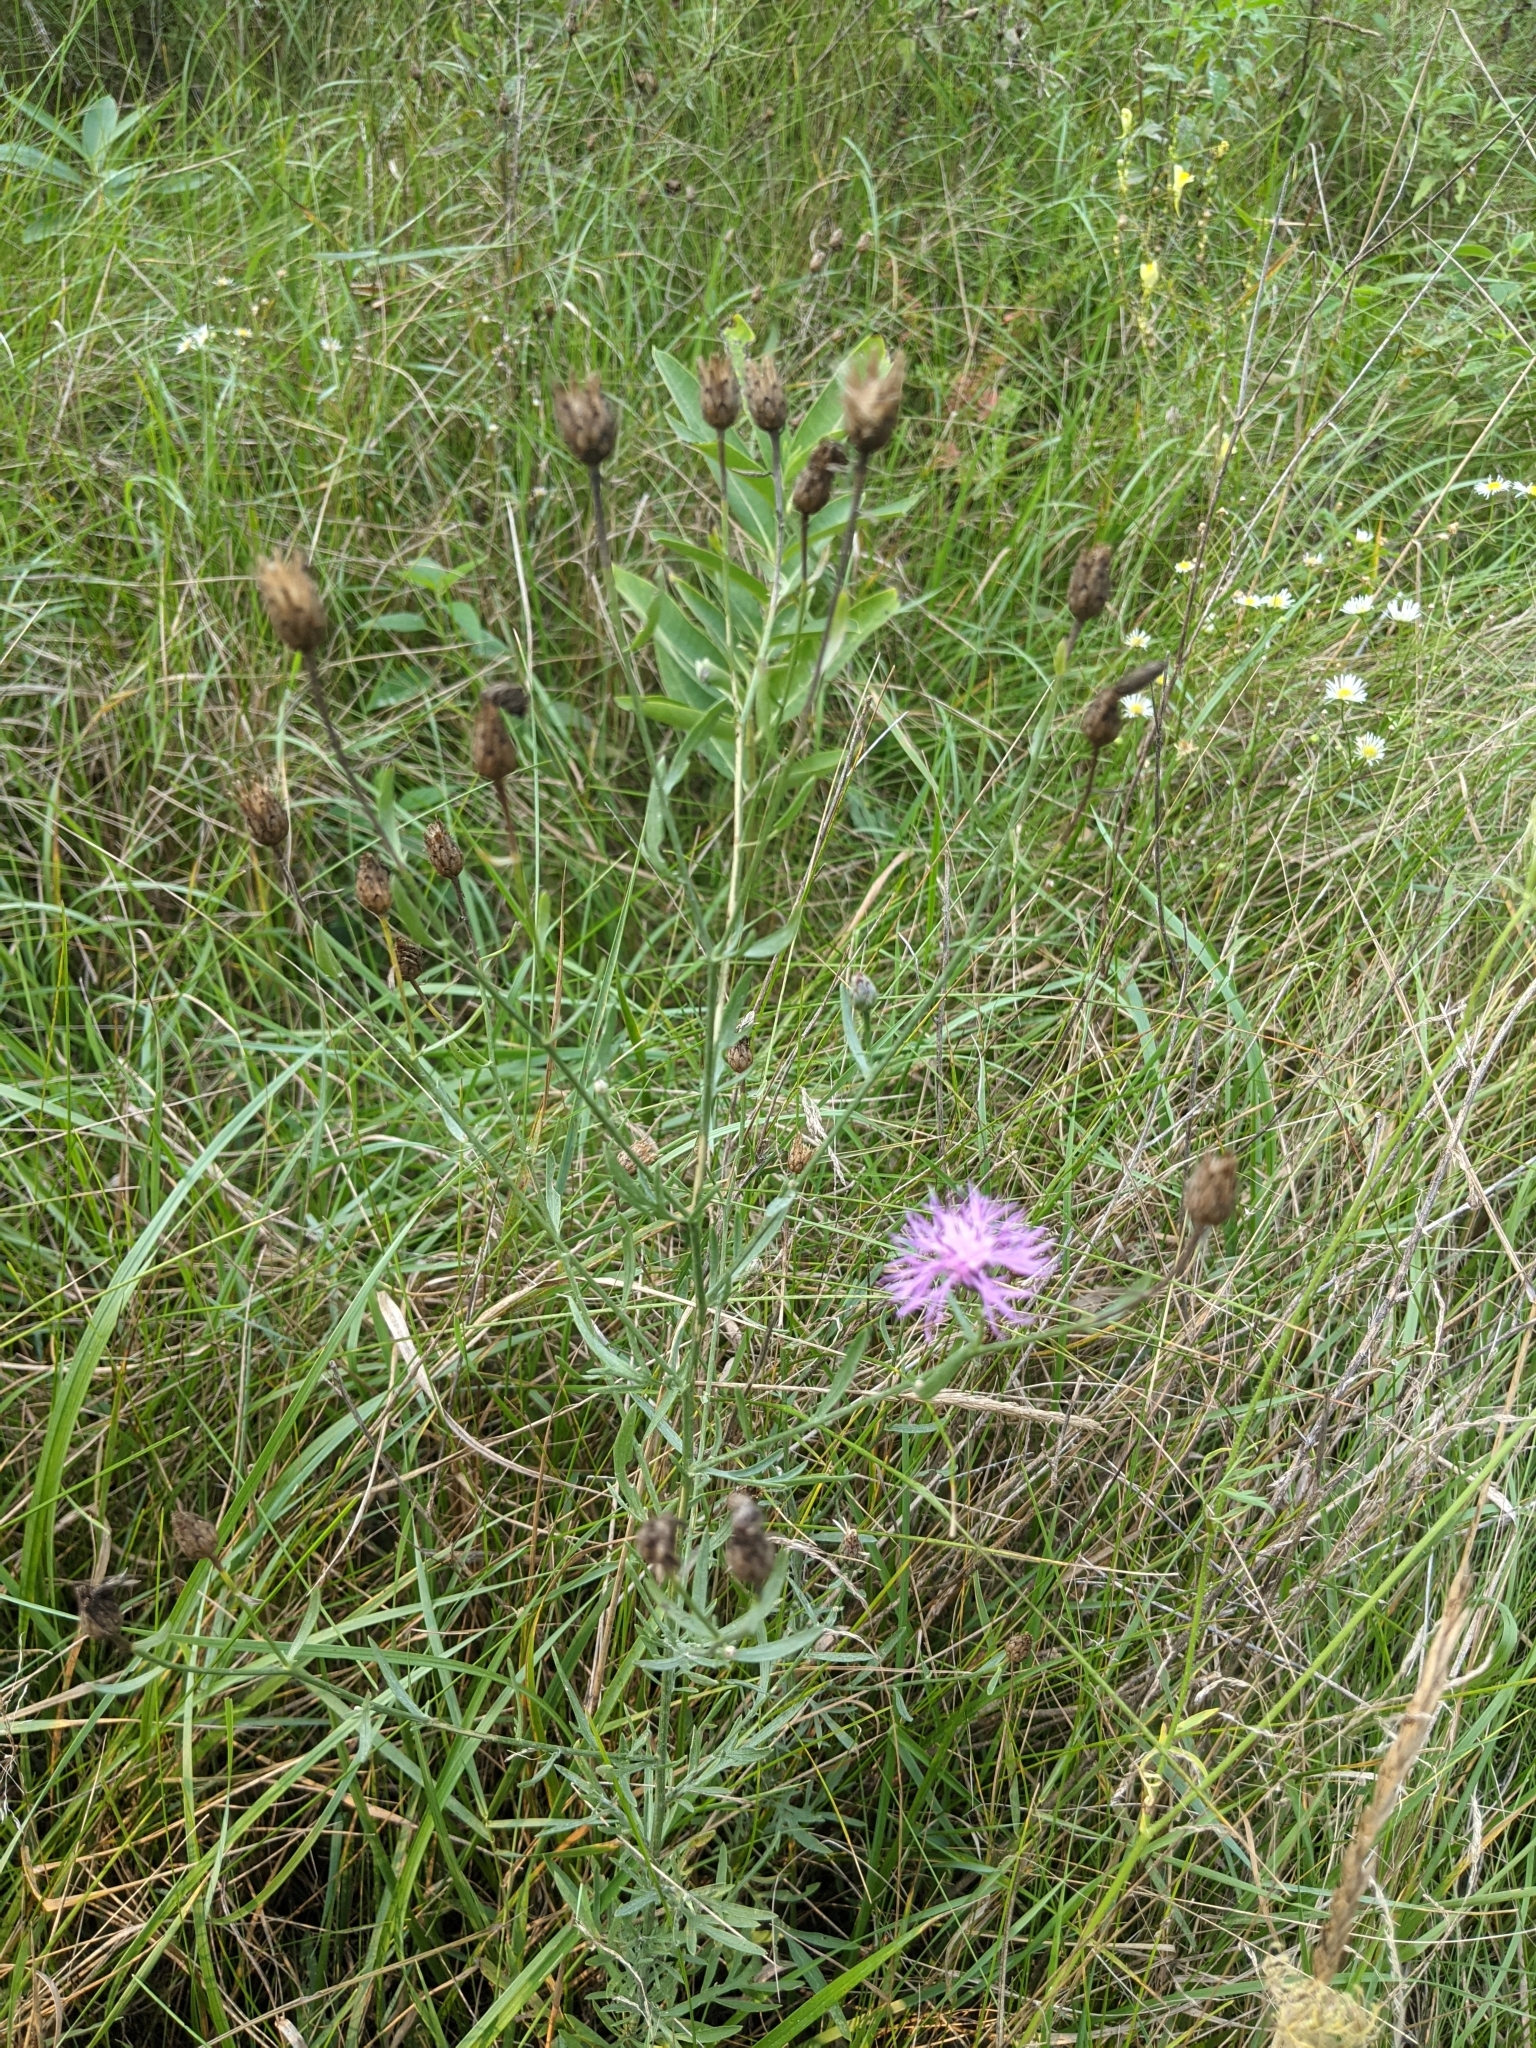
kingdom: Plantae
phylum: Tracheophyta
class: Magnoliopsida
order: Asterales
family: Asteraceae
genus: Centaurea
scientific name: Centaurea stoebe
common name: Spotted knapweed
